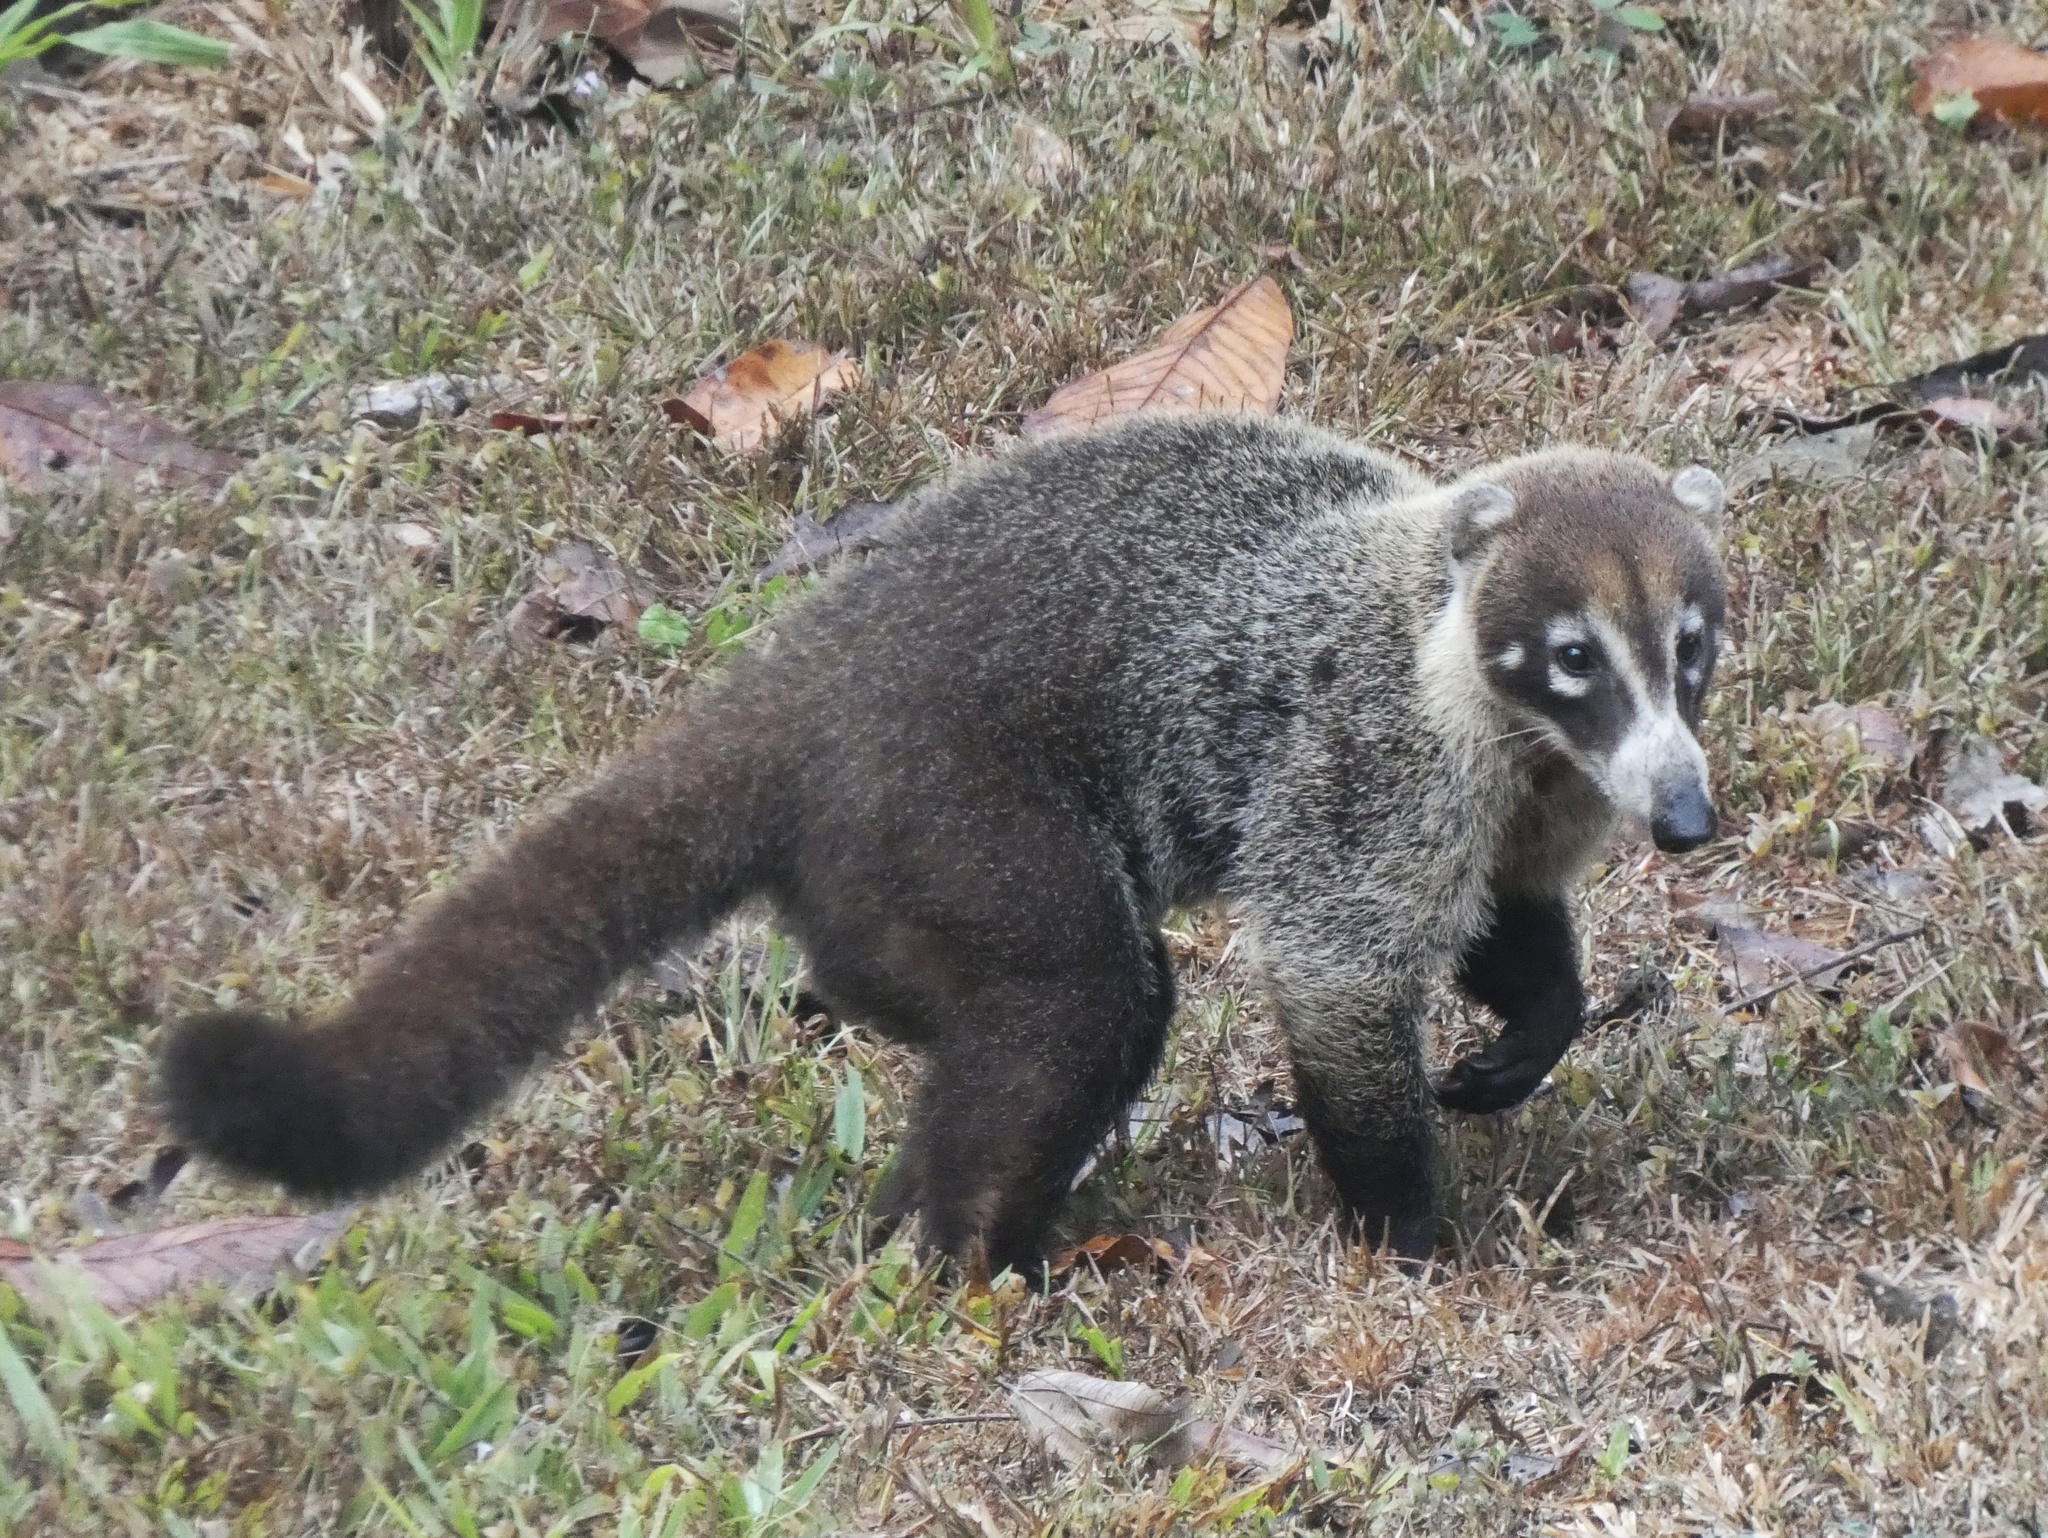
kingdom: Animalia
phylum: Chordata
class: Mammalia
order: Carnivora
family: Procyonidae
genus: Nasua
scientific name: Nasua narica
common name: White-nosed coati
